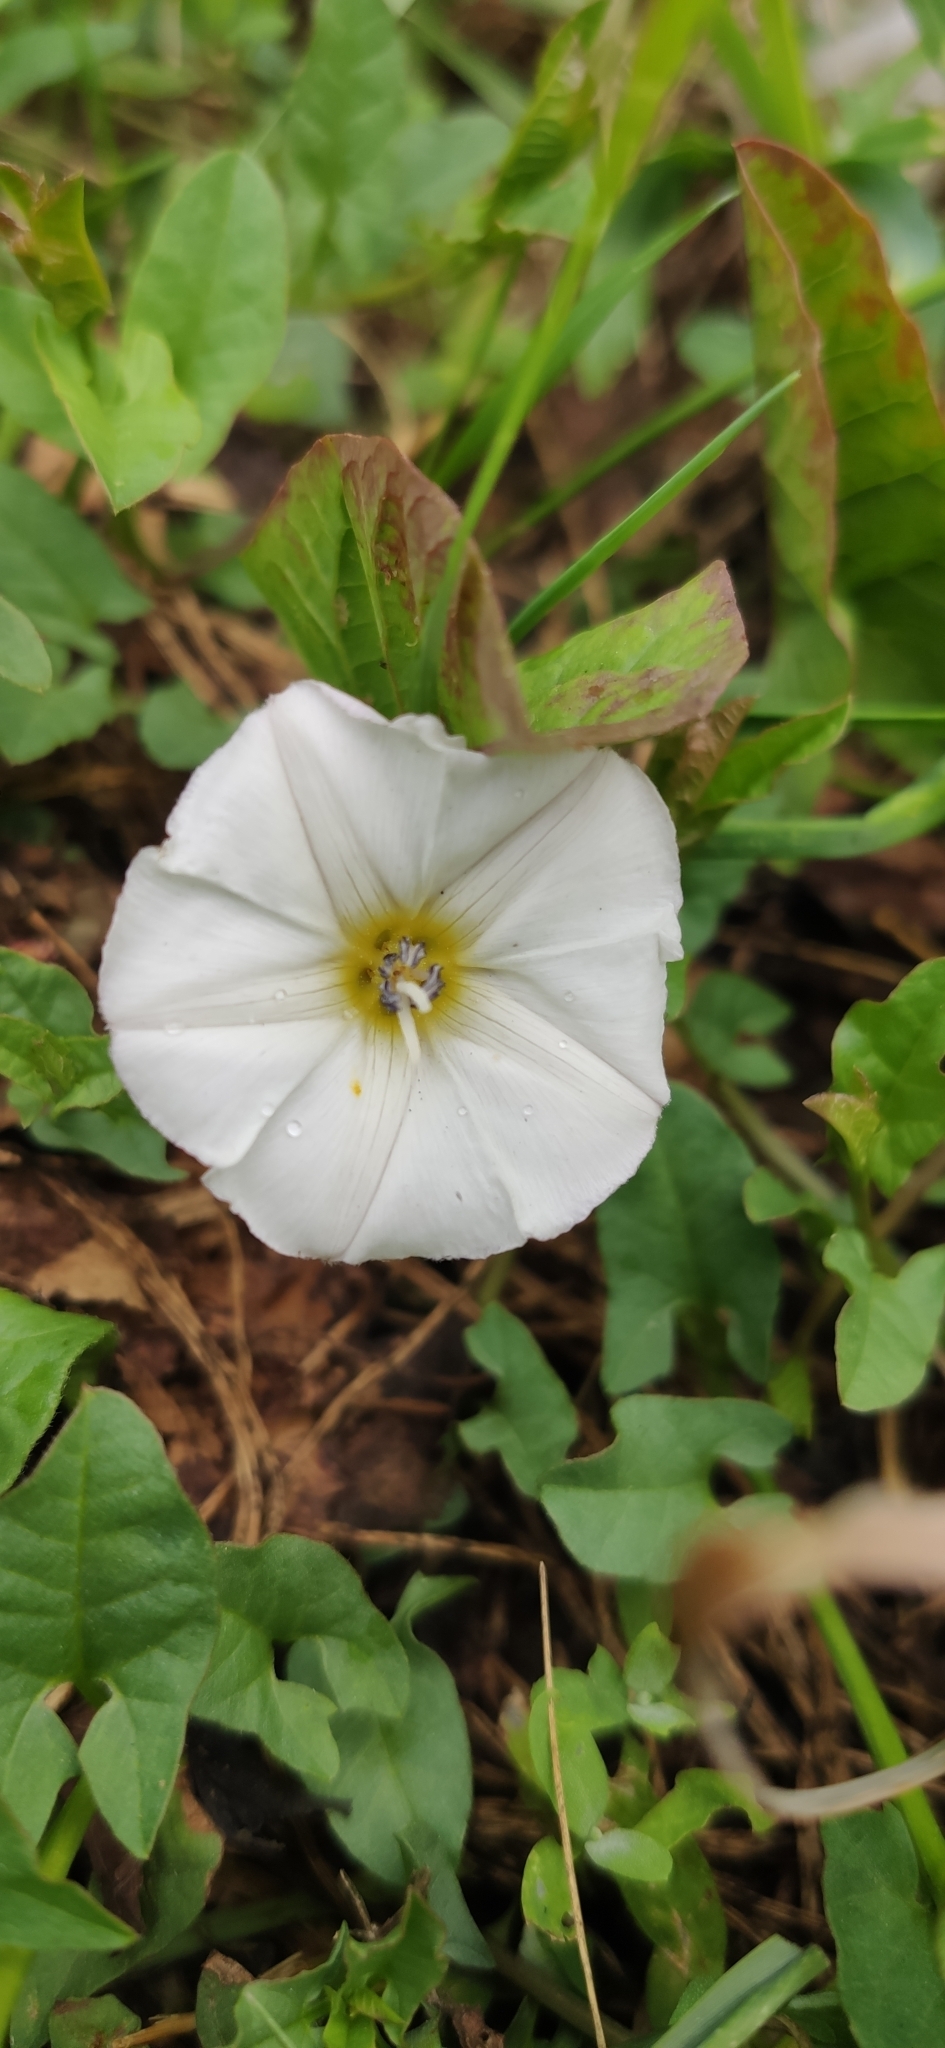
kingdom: Plantae
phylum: Tracheophyta
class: Magnoliopsida
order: Solanales
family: Convolvulaceae
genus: Convolvulus
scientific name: Convolvulus arvensis
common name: Field bindweed
